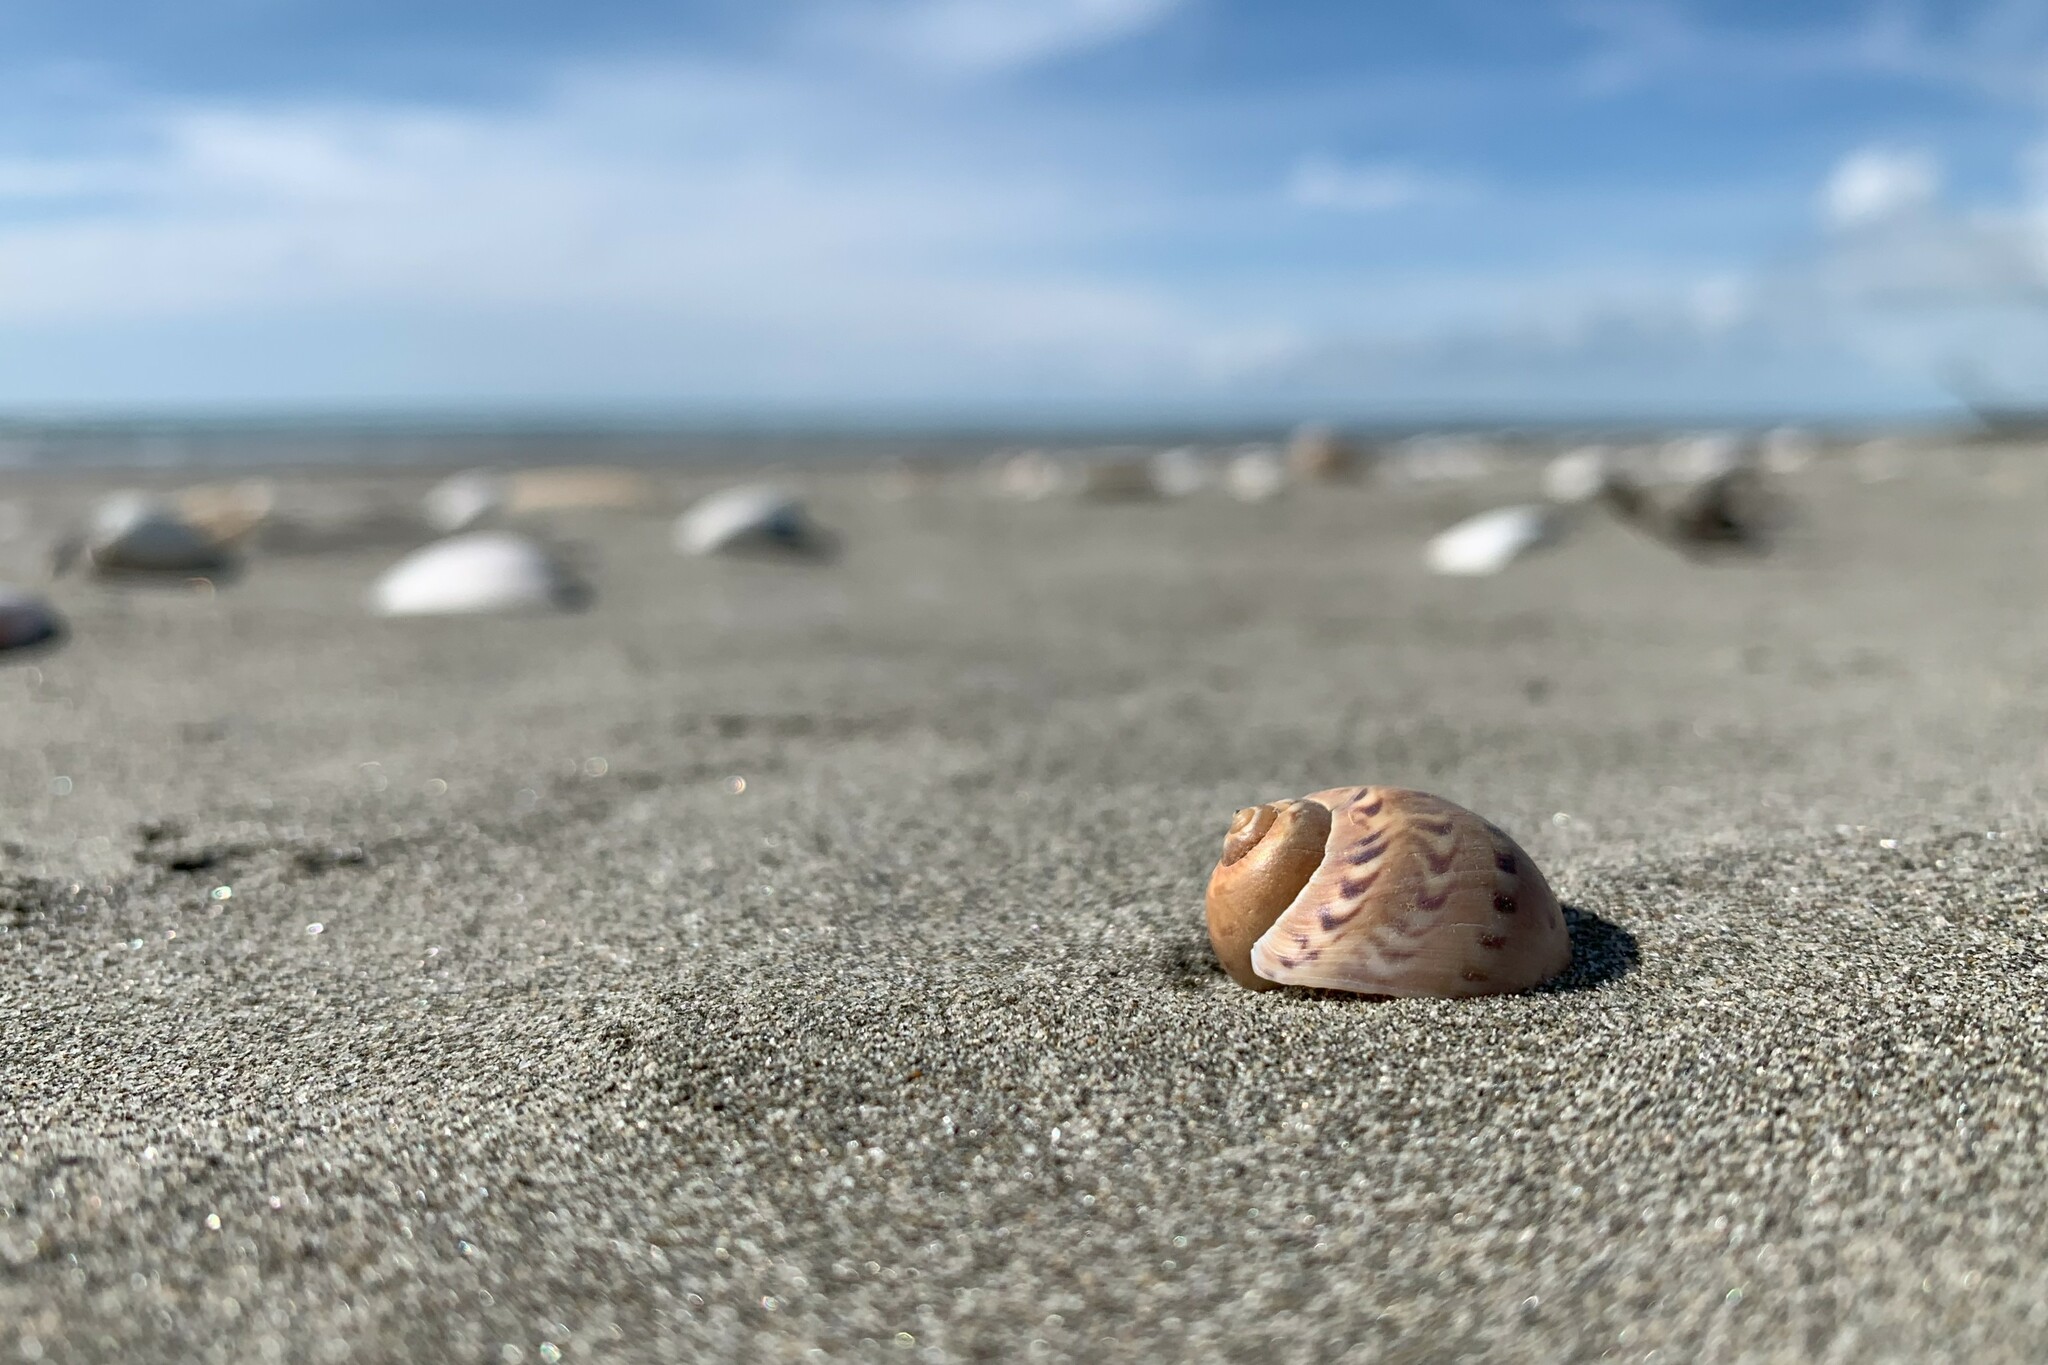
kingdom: Animalia
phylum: Mollusca
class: Gastropoda
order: Littorinimorpha
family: Naticidae
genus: Tanea
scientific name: Tanea zelandica
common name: New zealand moonsnail
